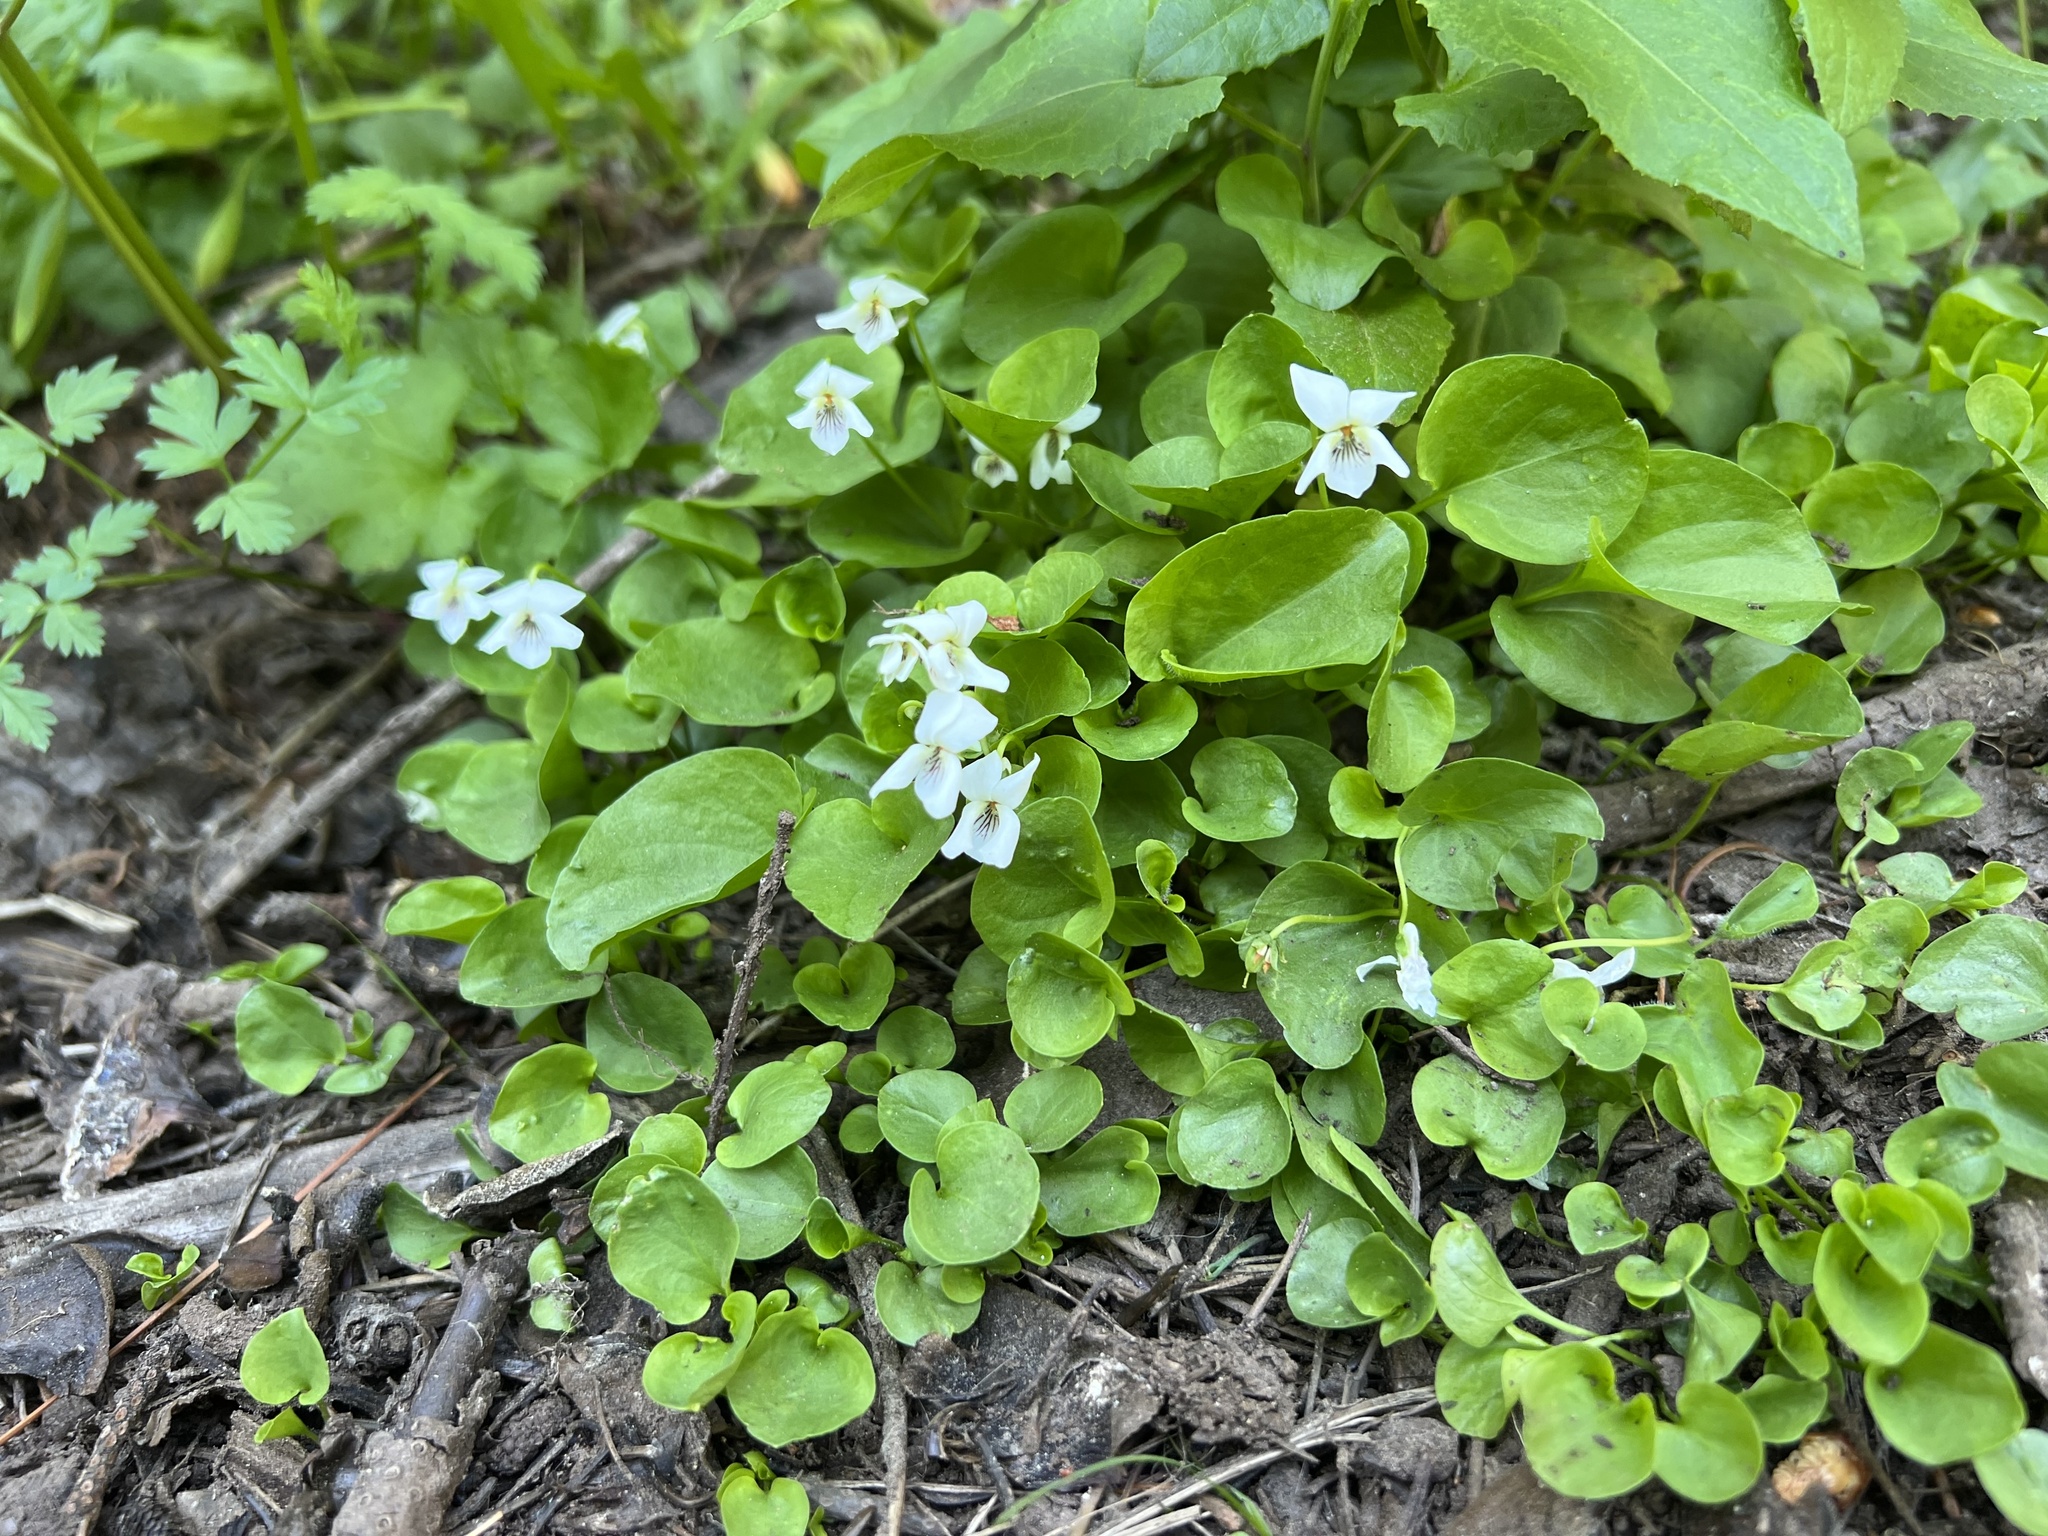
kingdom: Plantae
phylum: Tracheophyta
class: Magnoliopsida
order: Malpighiales
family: Violaceae
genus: Viola
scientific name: Viola macloskeyi
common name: Macloskey's violet
